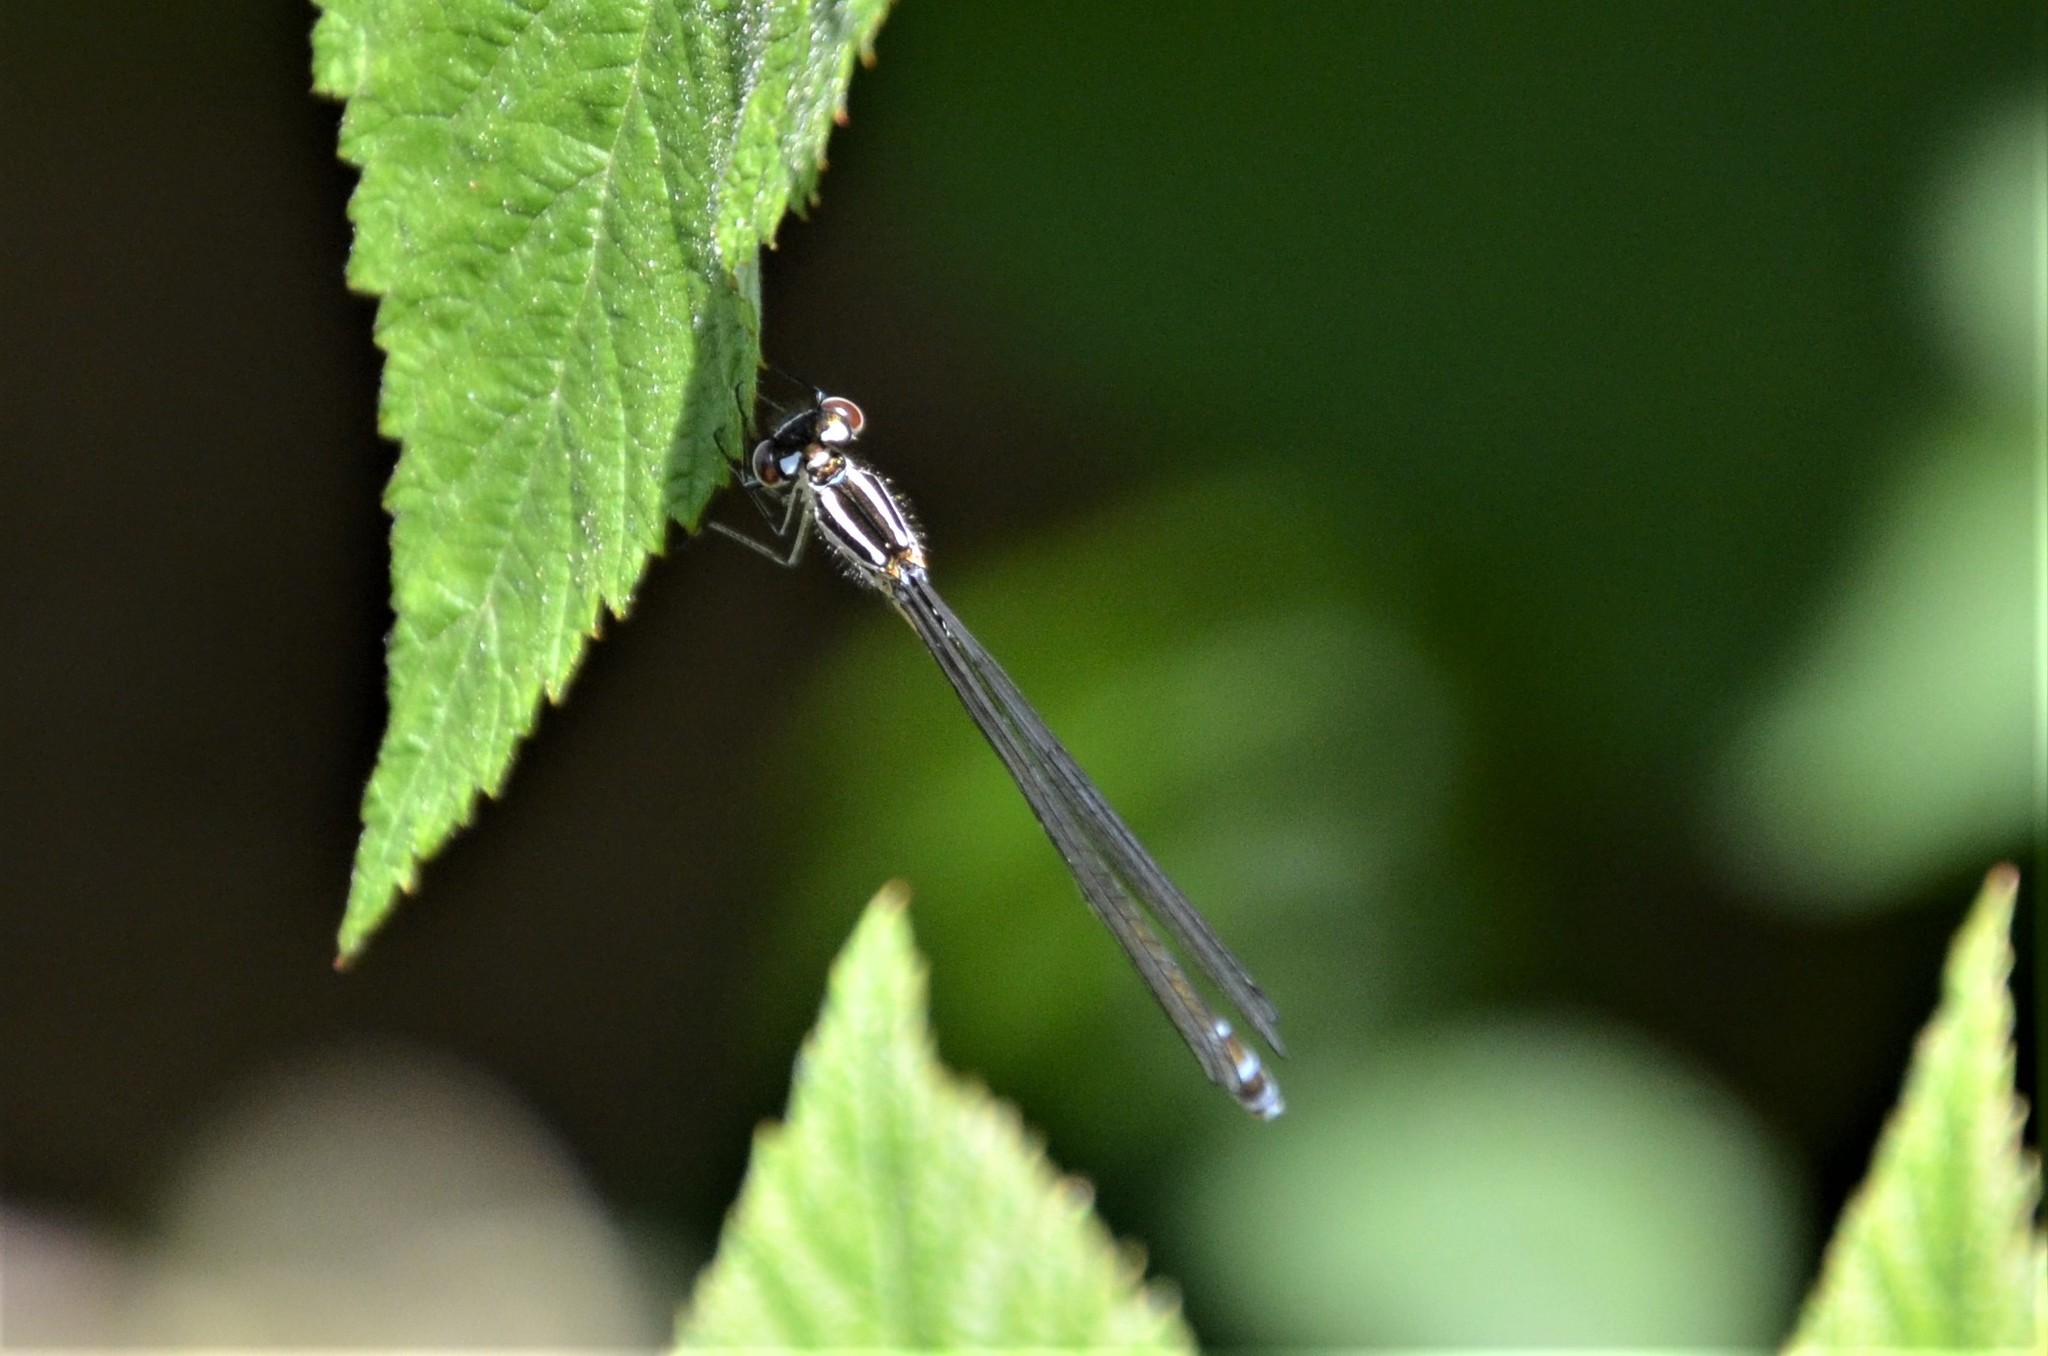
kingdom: Animalia
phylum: Arthropoda
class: Insecta
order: Odonata
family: Coenagrionidae
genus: Coenagrion
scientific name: Coenagrion puella
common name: Azure damselfly
